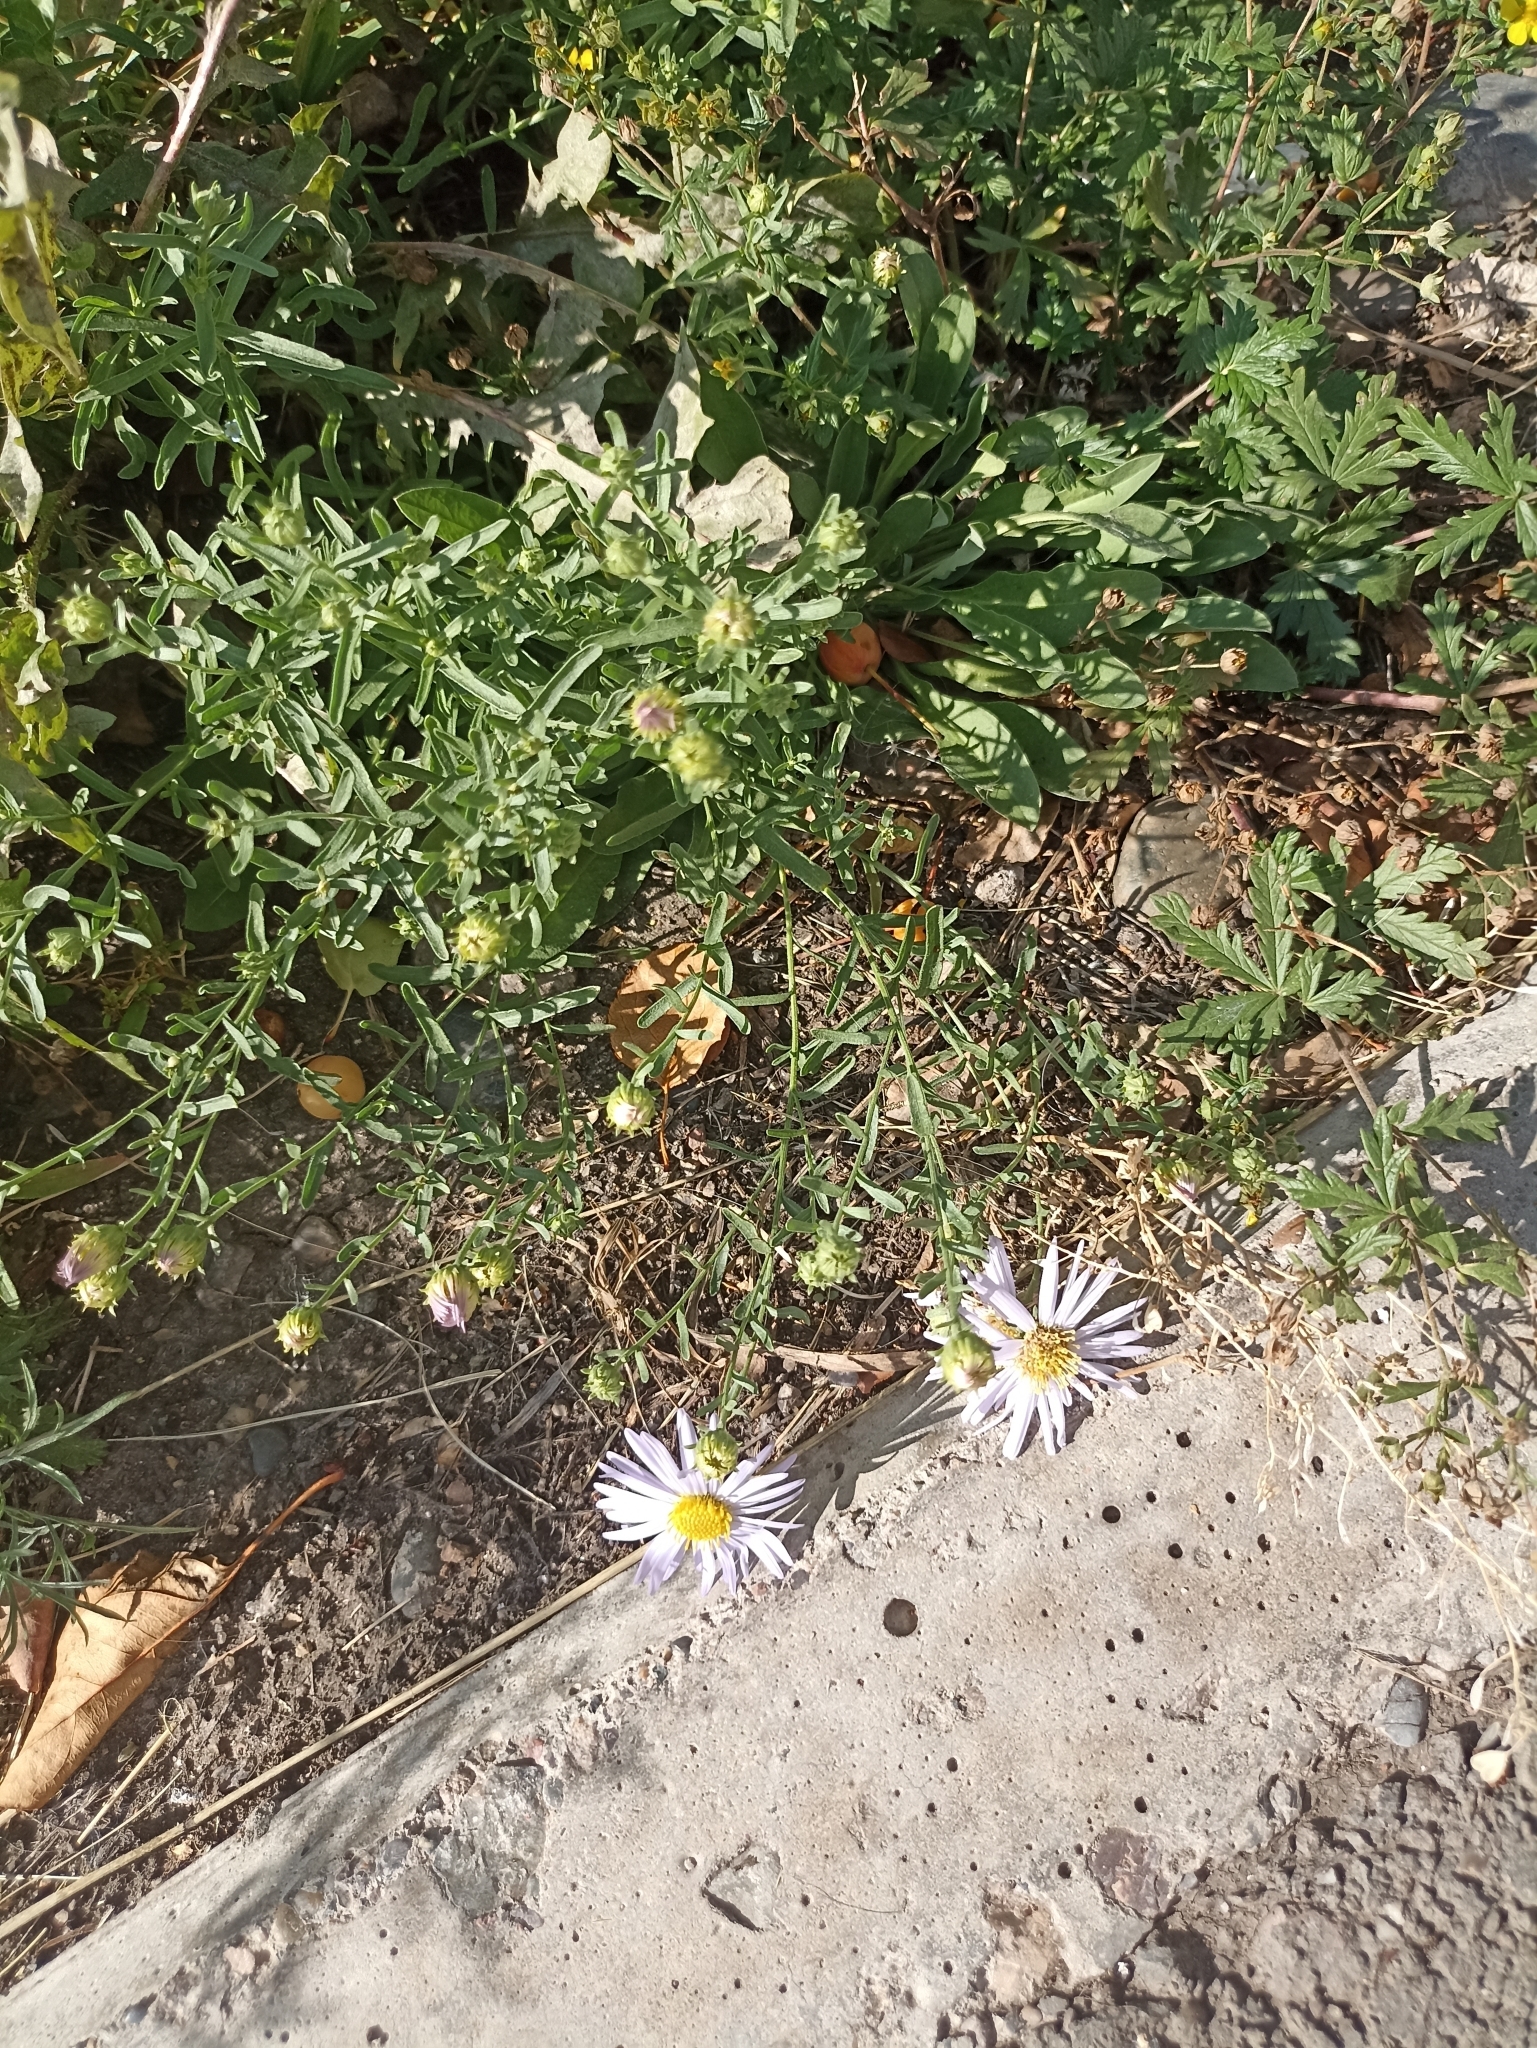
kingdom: Plantae
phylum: Tracheophyta
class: Magnoliopsida
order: Asterales
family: Asteraceae
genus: Heteropappus
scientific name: Heteropappus altaicus
